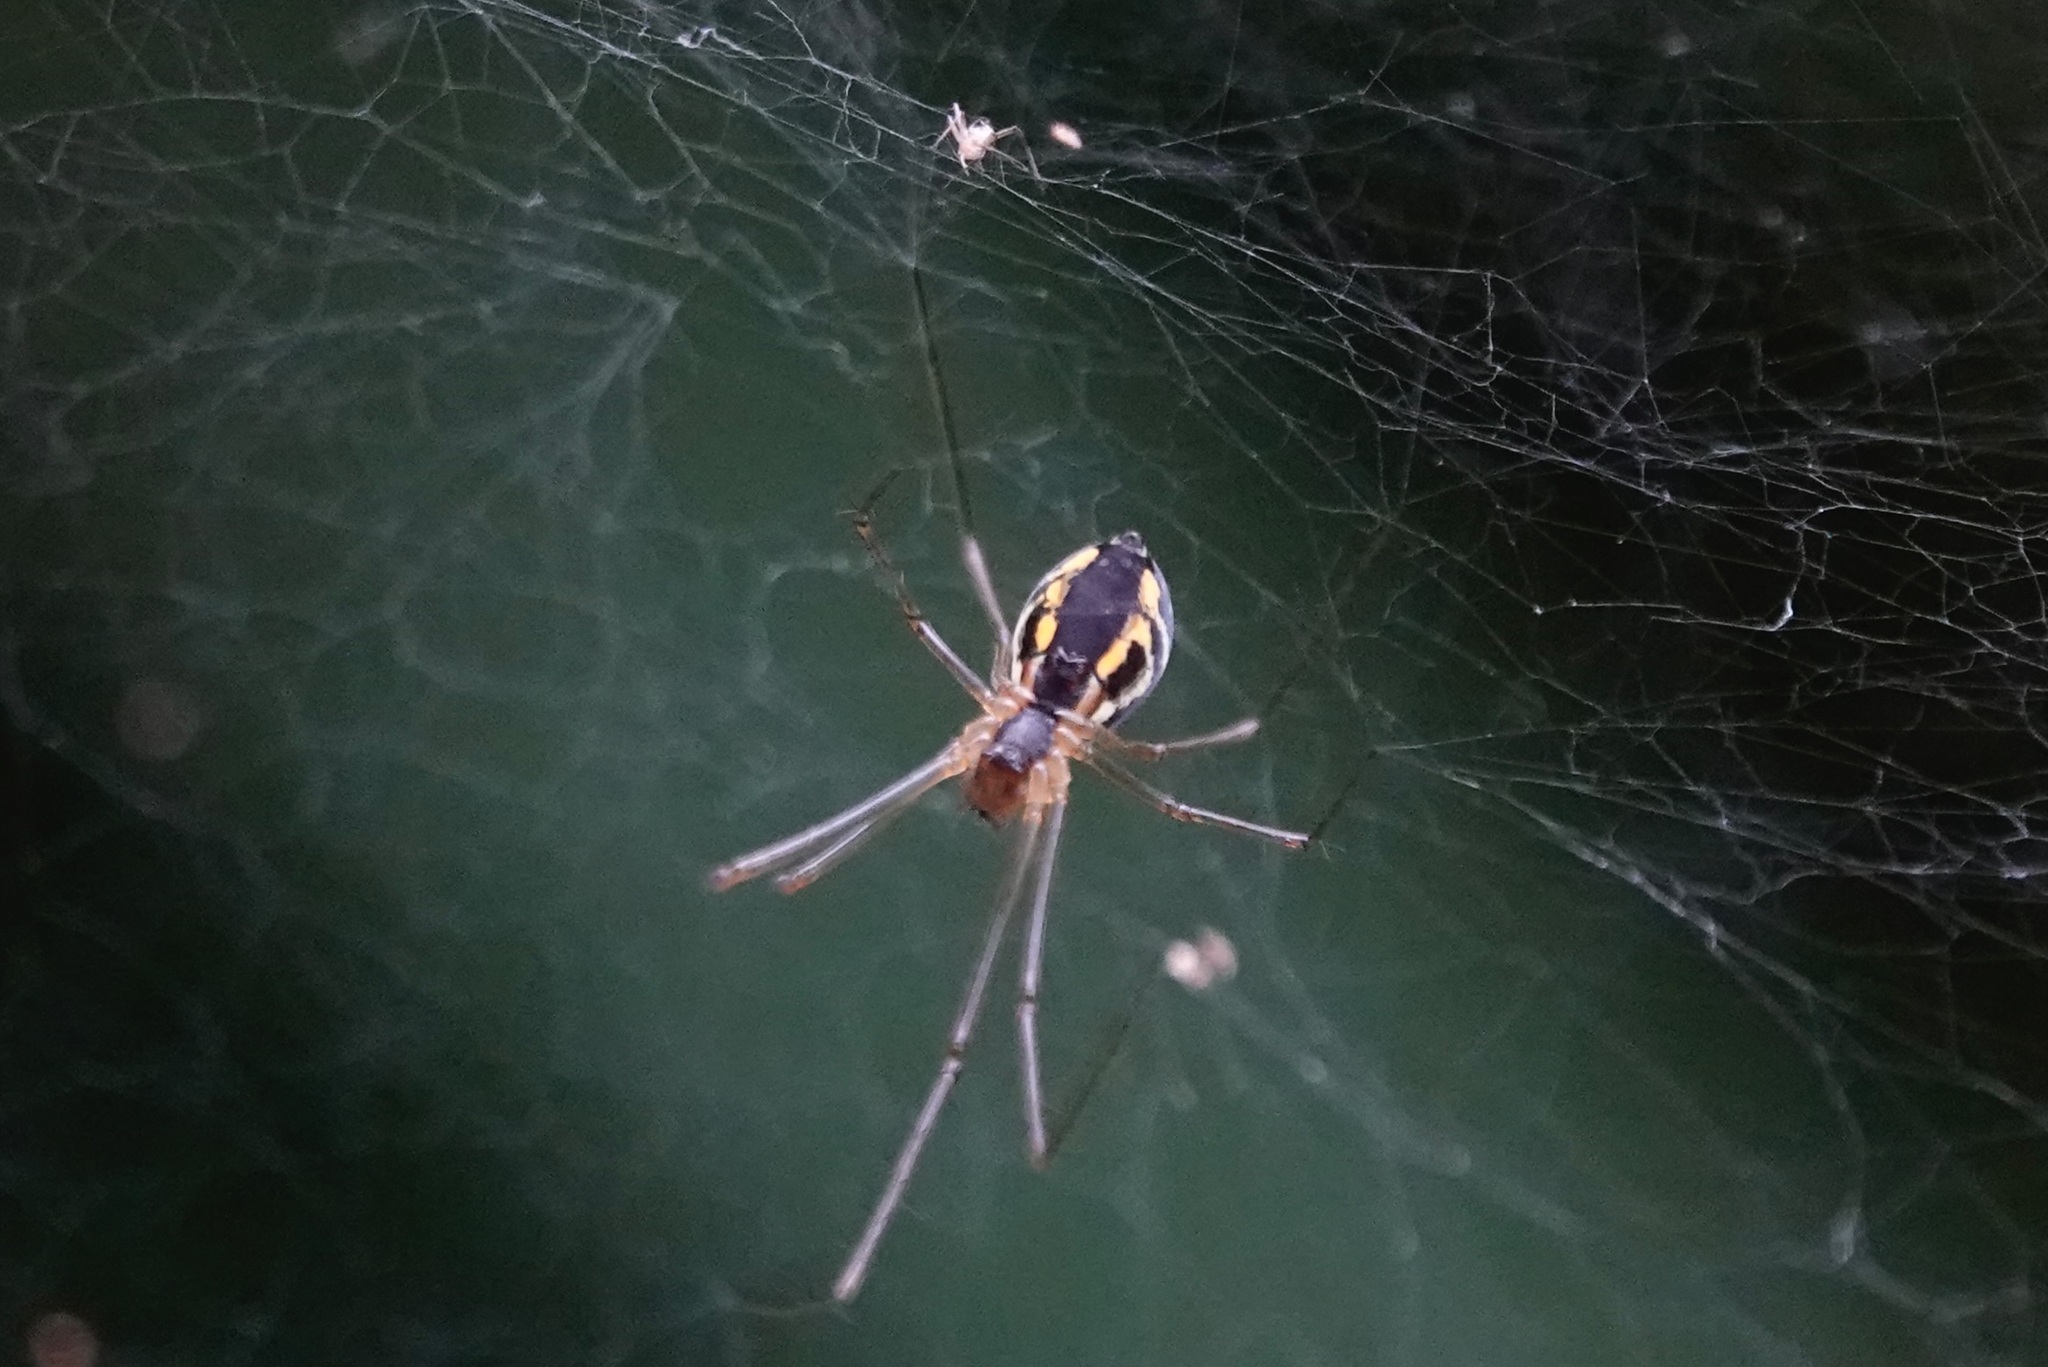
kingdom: Animalia
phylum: Arthropoda
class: Arachnida
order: Araneae
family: Linyphiidae
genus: Neriene
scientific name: Neriene radiata
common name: Filmy dome spider
